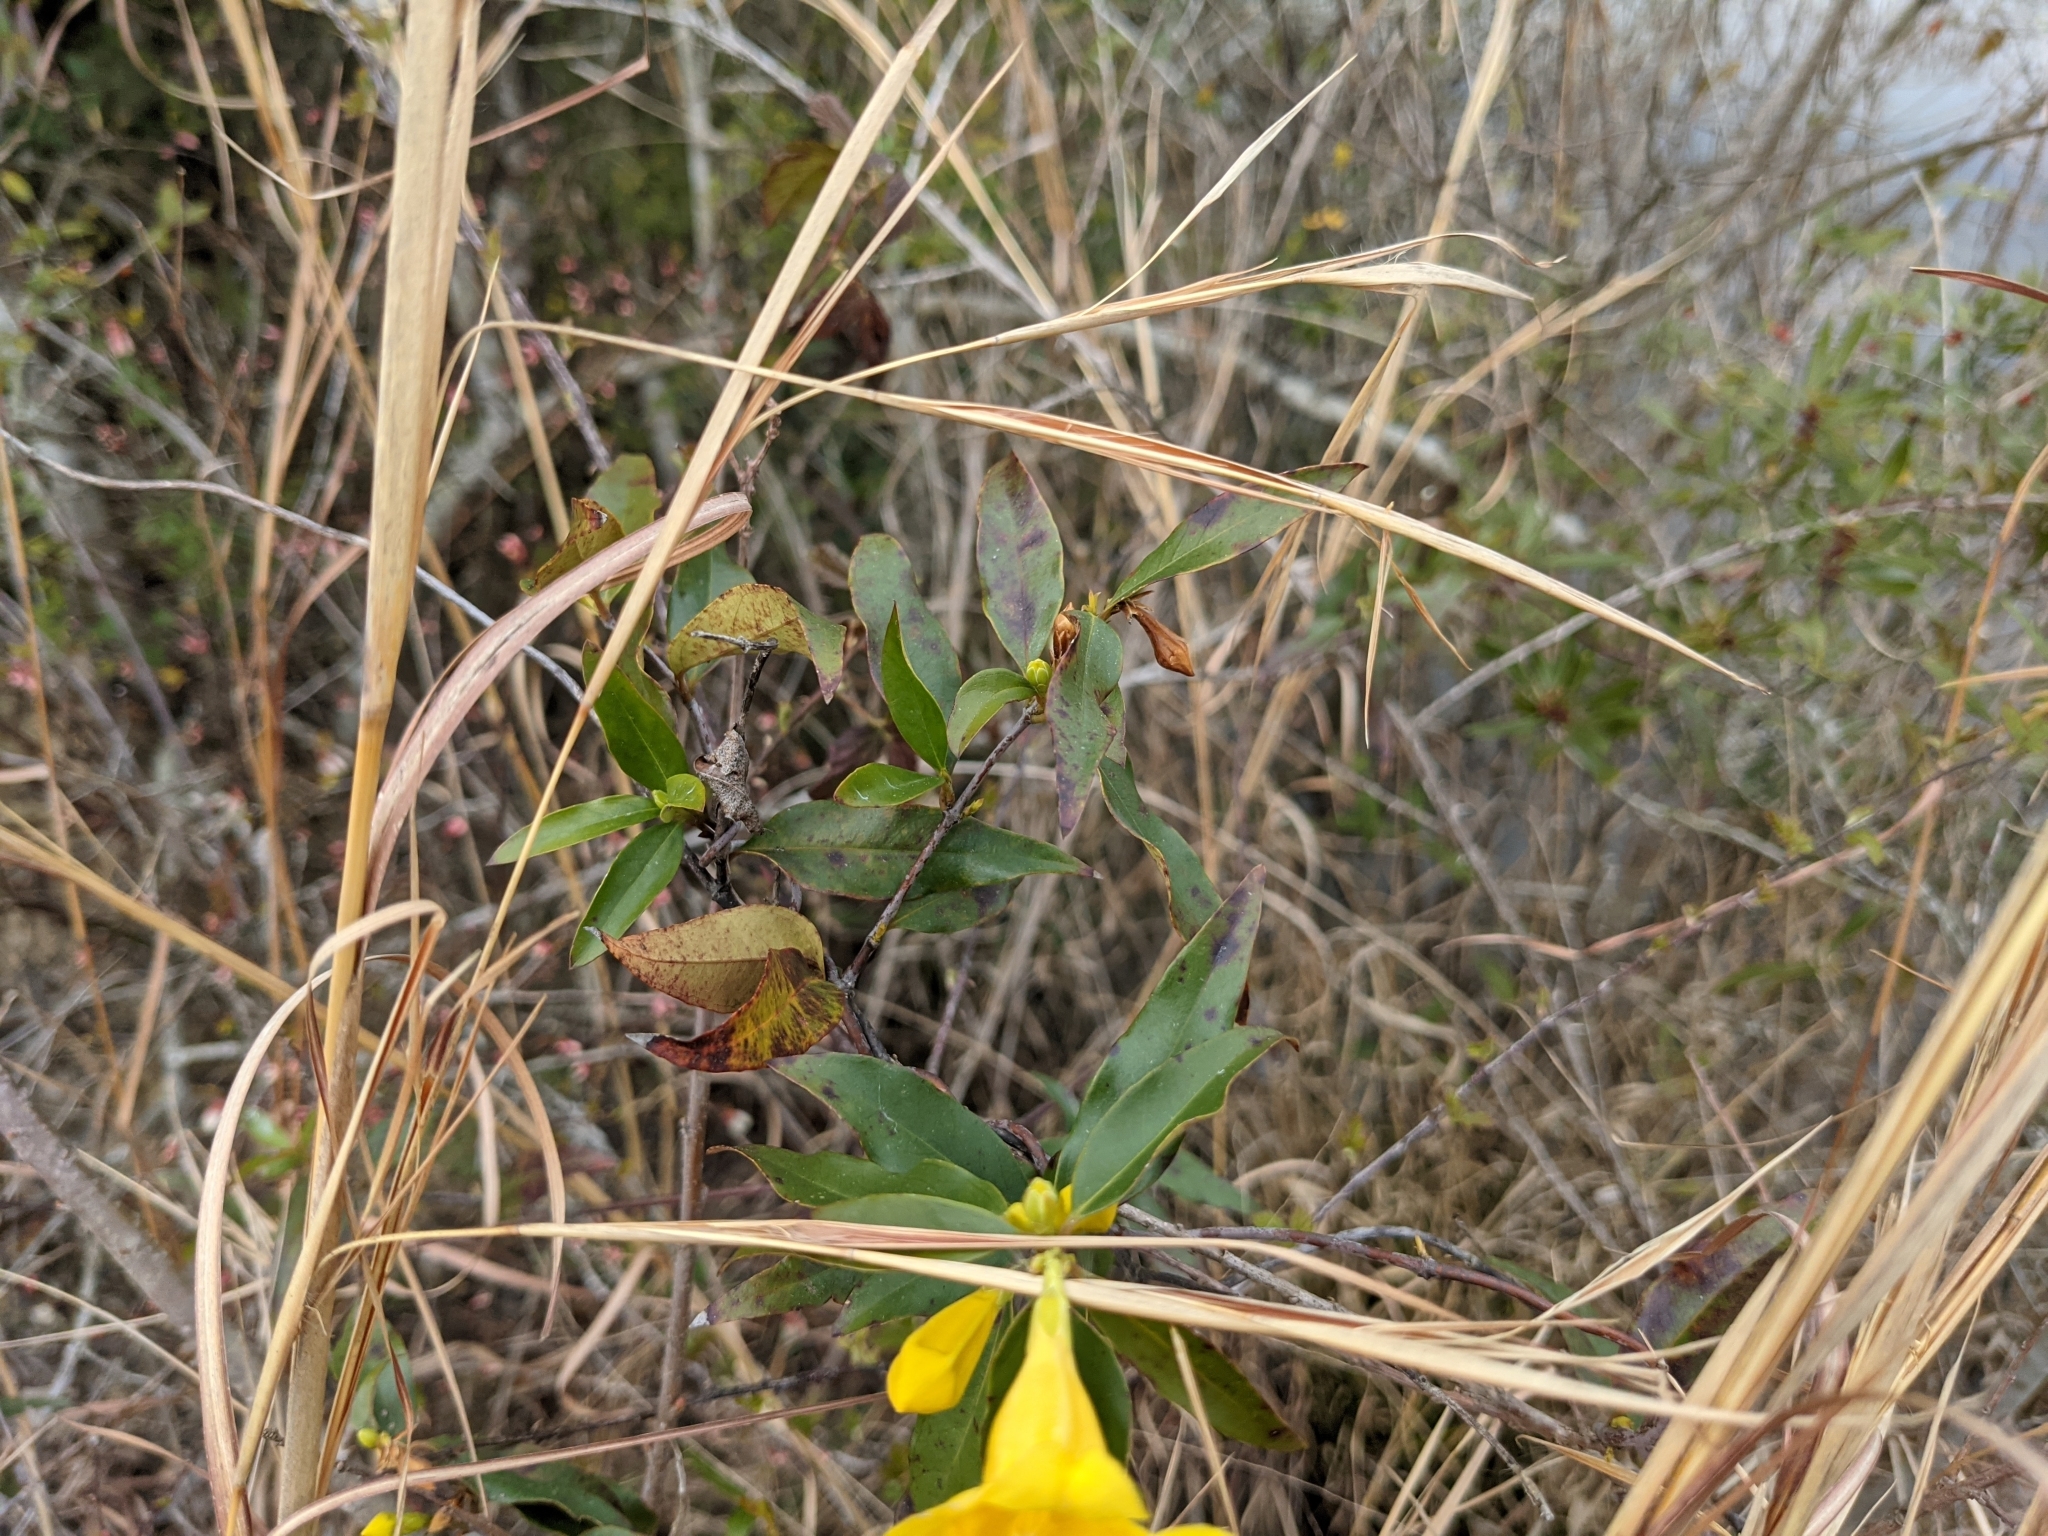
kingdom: Plantae
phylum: Tracheophyta
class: Magnoliopsida
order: Gentianales
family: Gelsemiaceae
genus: Gelsemium
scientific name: Gelsemium sempervirens
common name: Carolina-jasmine
